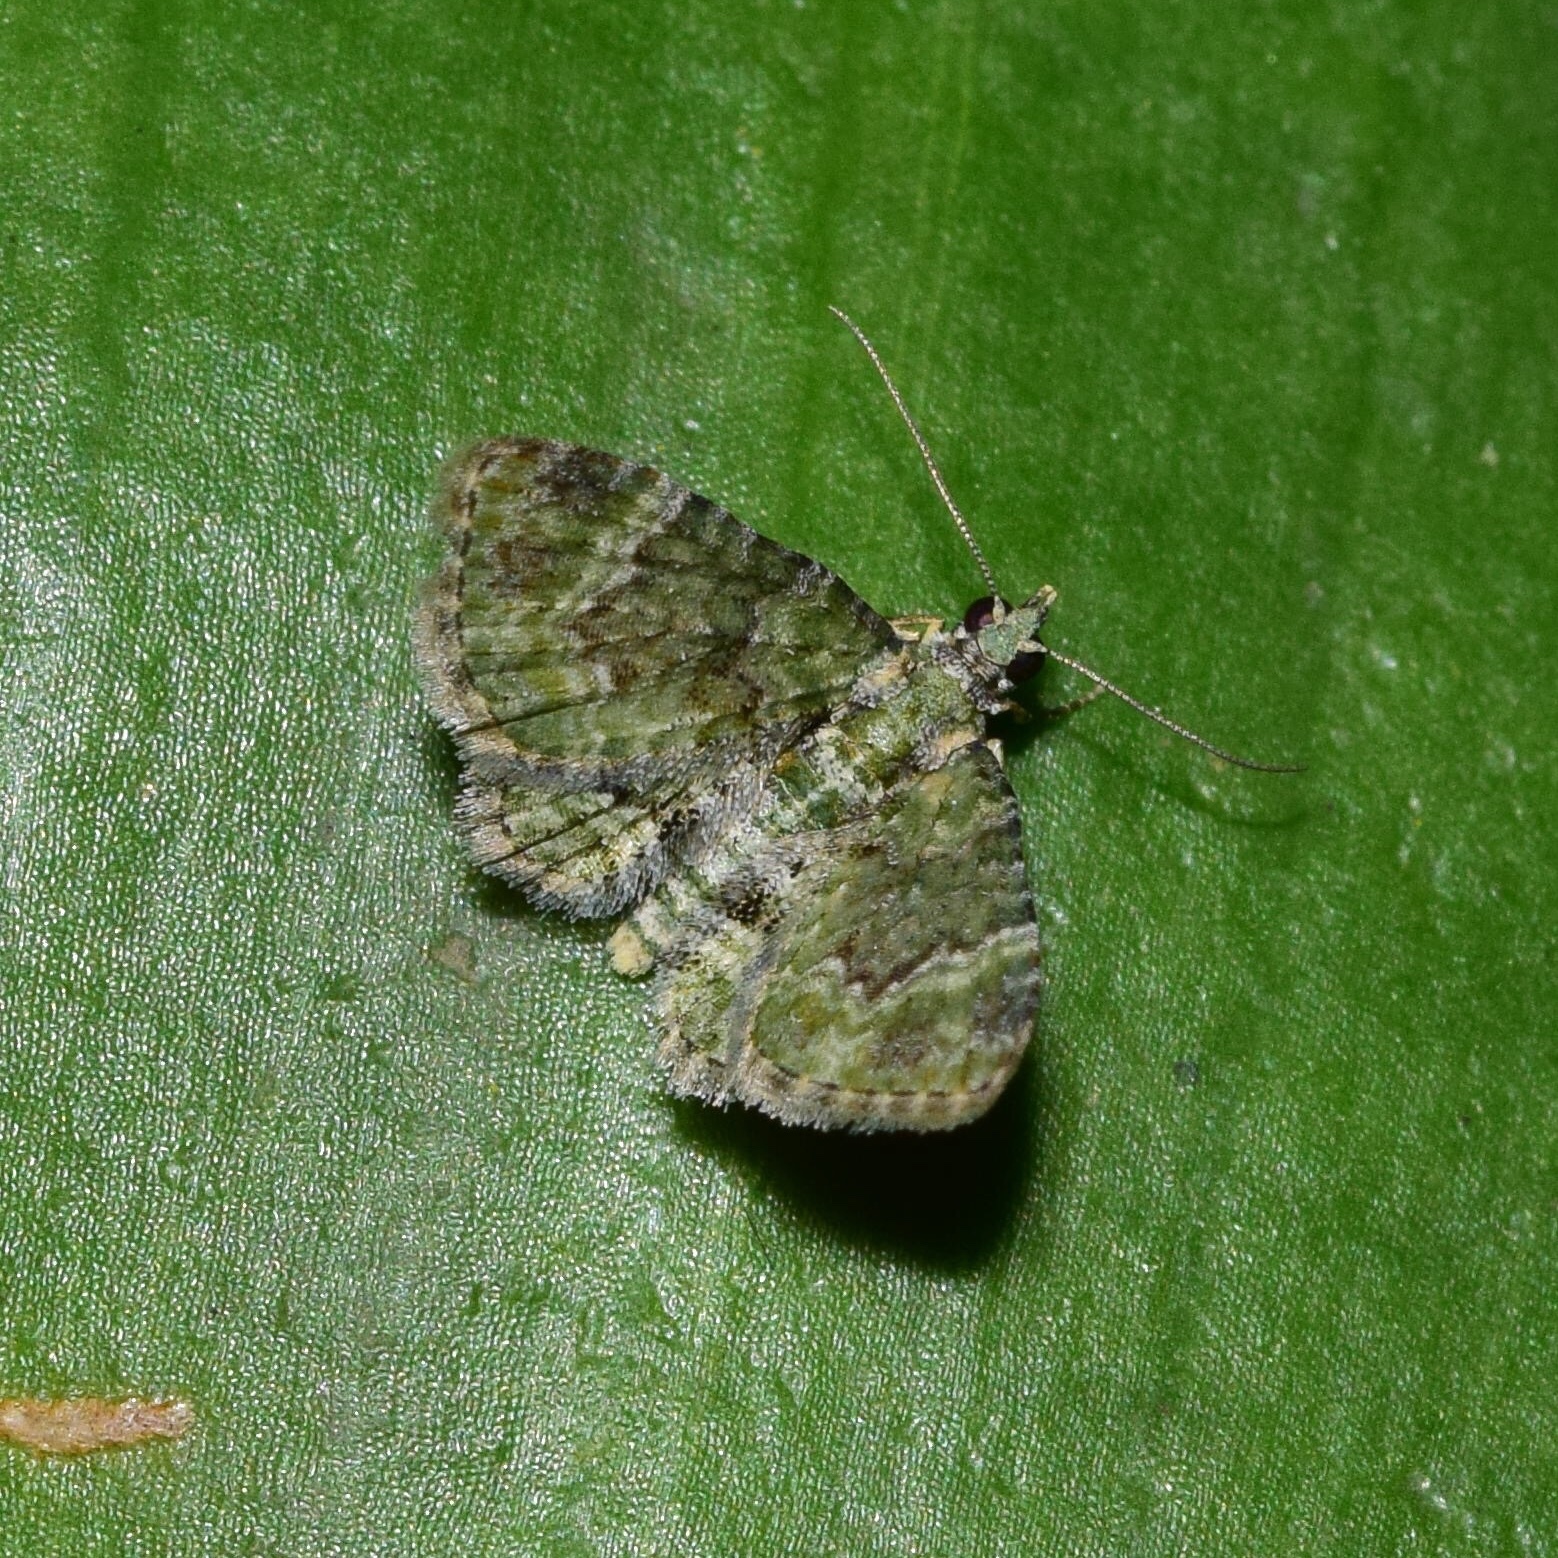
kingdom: Animalia
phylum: Arthropoda
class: Insecta
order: Lepidoptera
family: Geometridae
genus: Myrioblephara
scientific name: Myrioblephara muscosa
